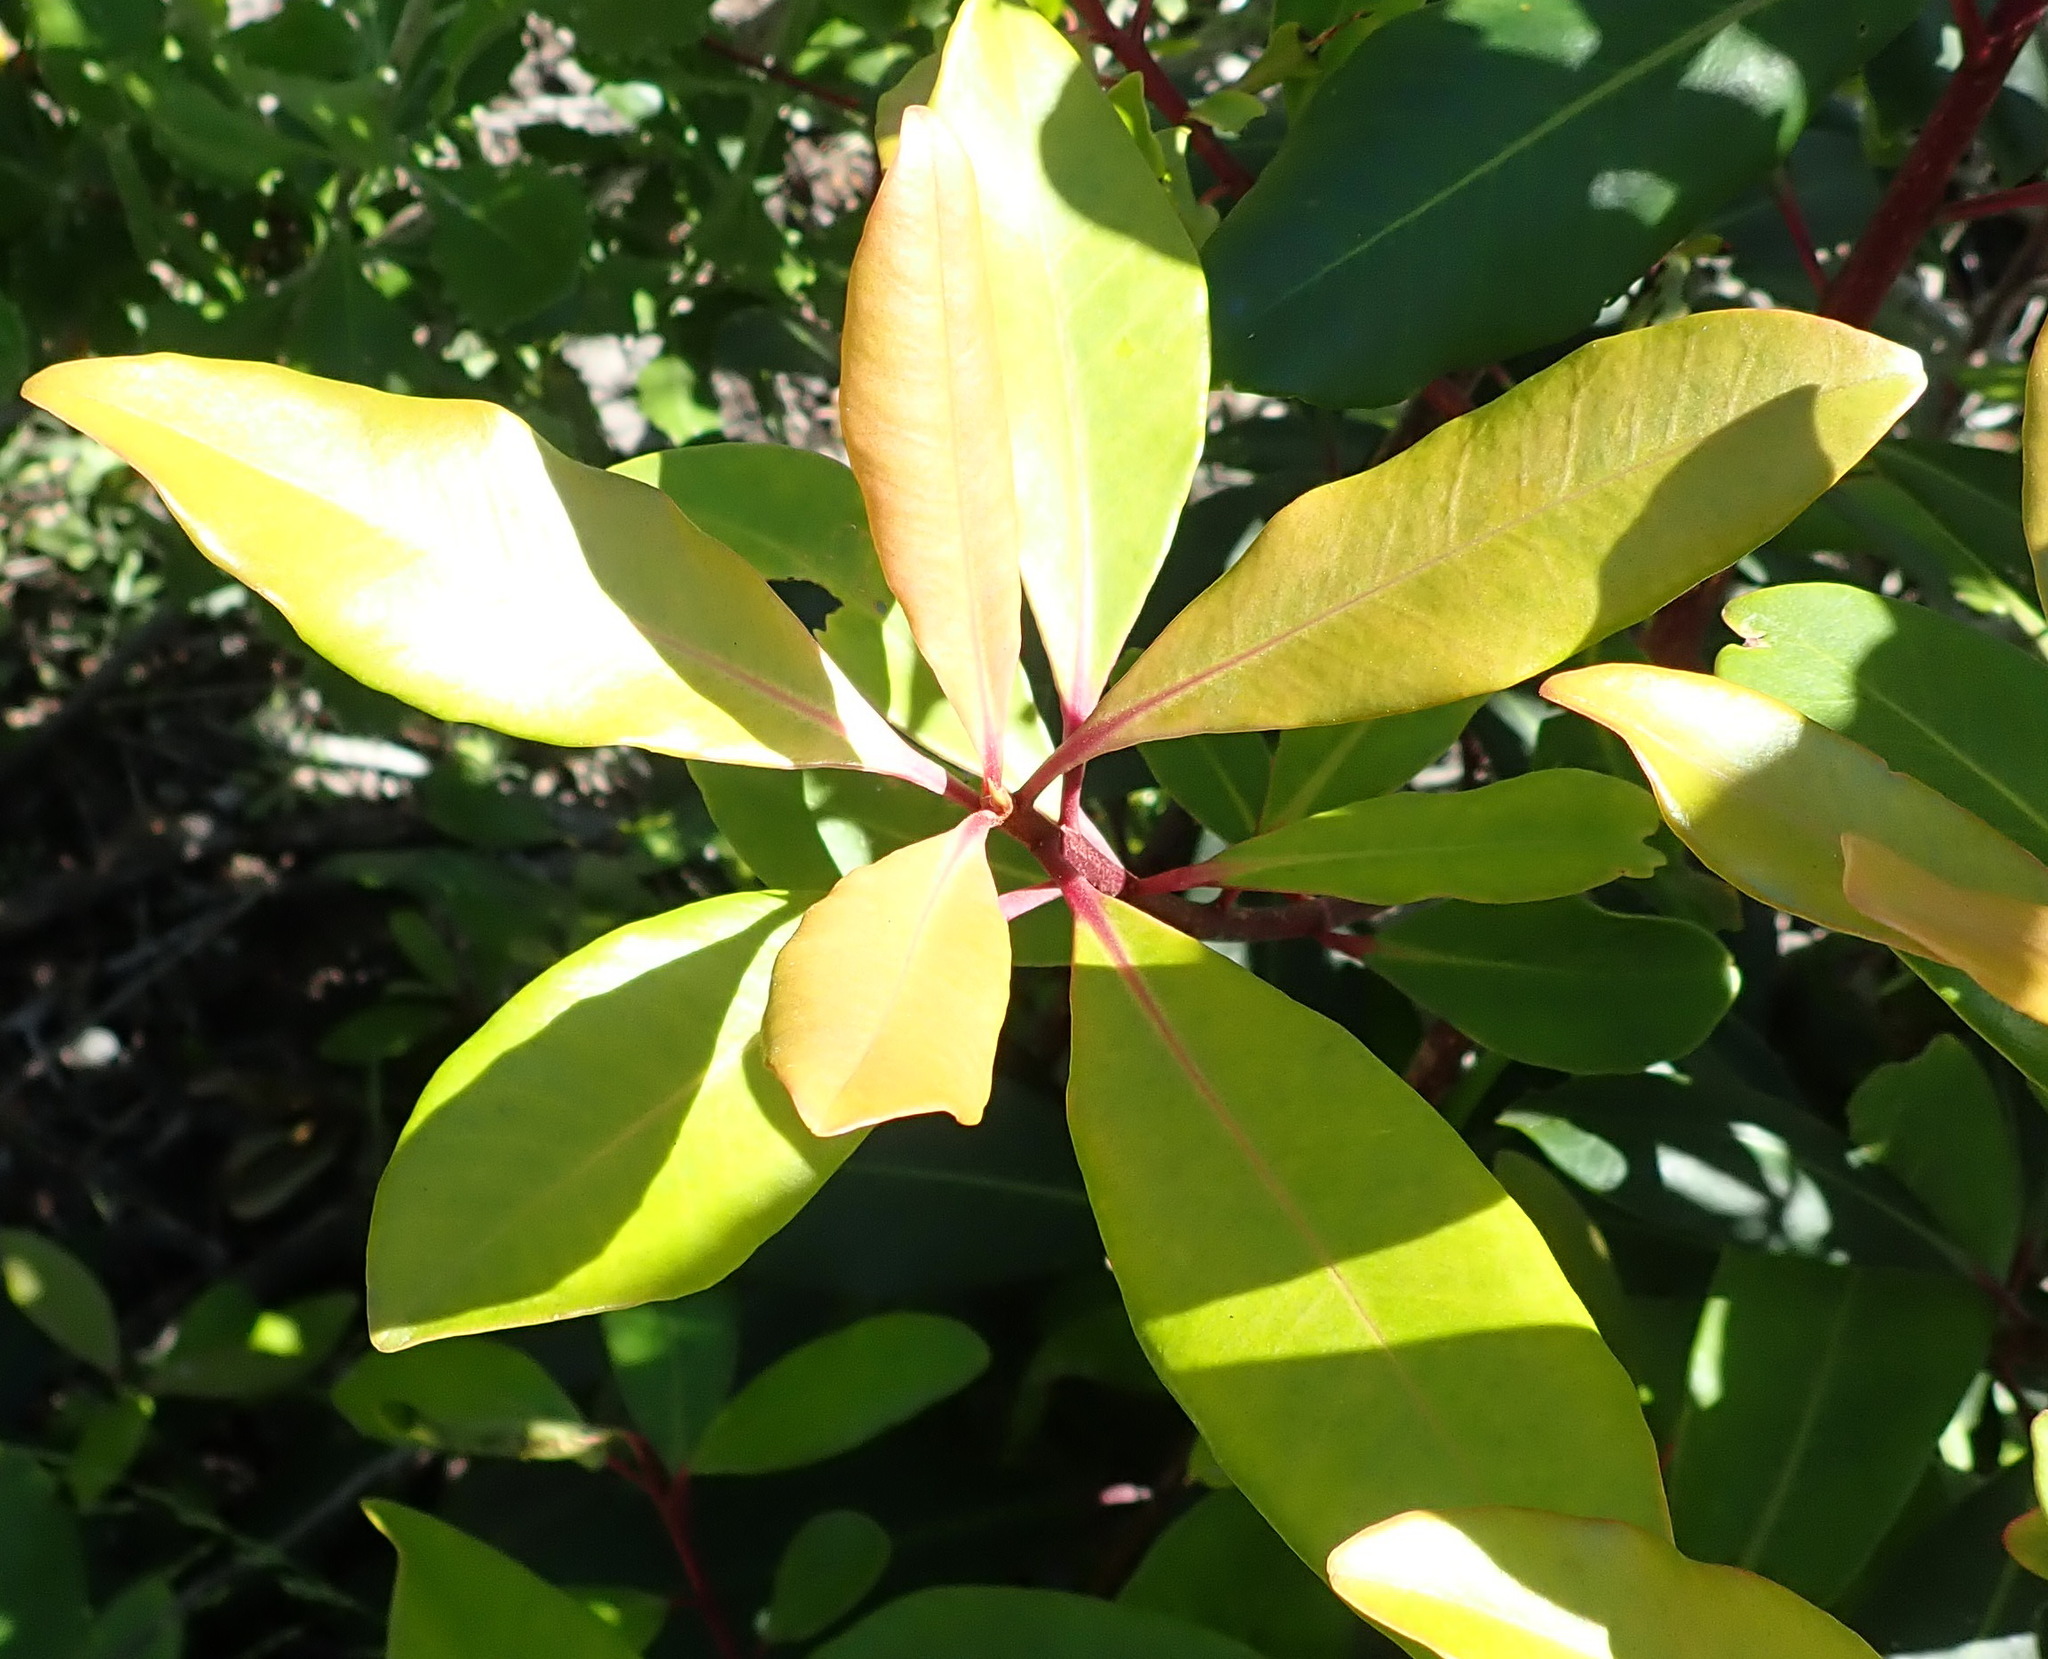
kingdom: Plantae
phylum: Tracheophyta
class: Magnoliopsida
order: Ericales
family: Primulaceae
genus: Myrsine
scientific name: Myrsine melanophloeos
